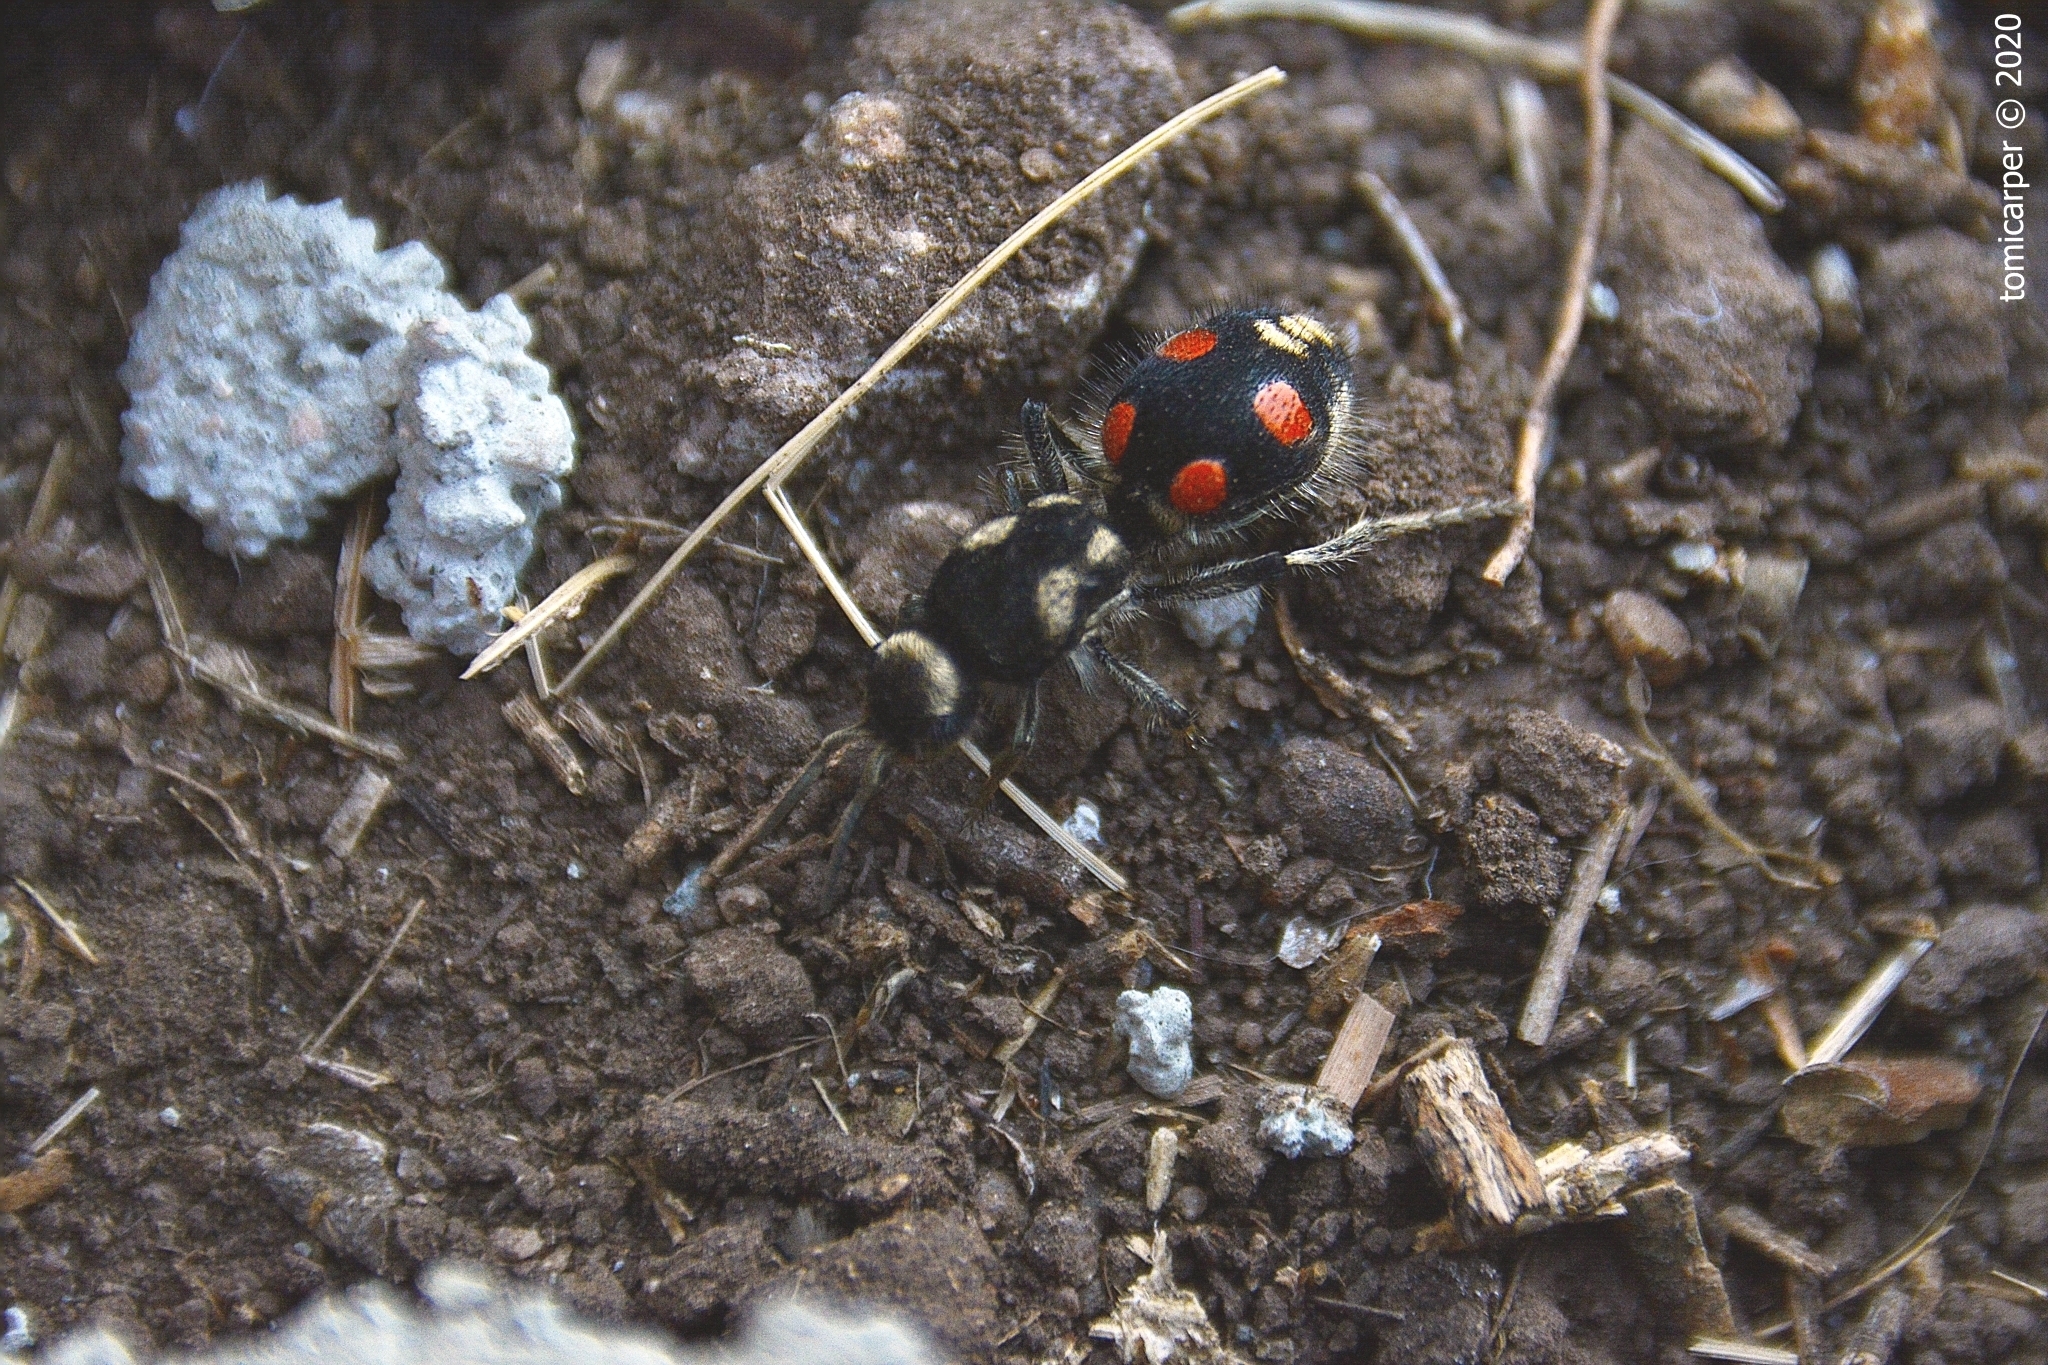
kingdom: Animalia
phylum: Arthropoda
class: Insecta
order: Hymenoptera
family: Mutillidae
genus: Traumatomutilla
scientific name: Traumatomutilla
